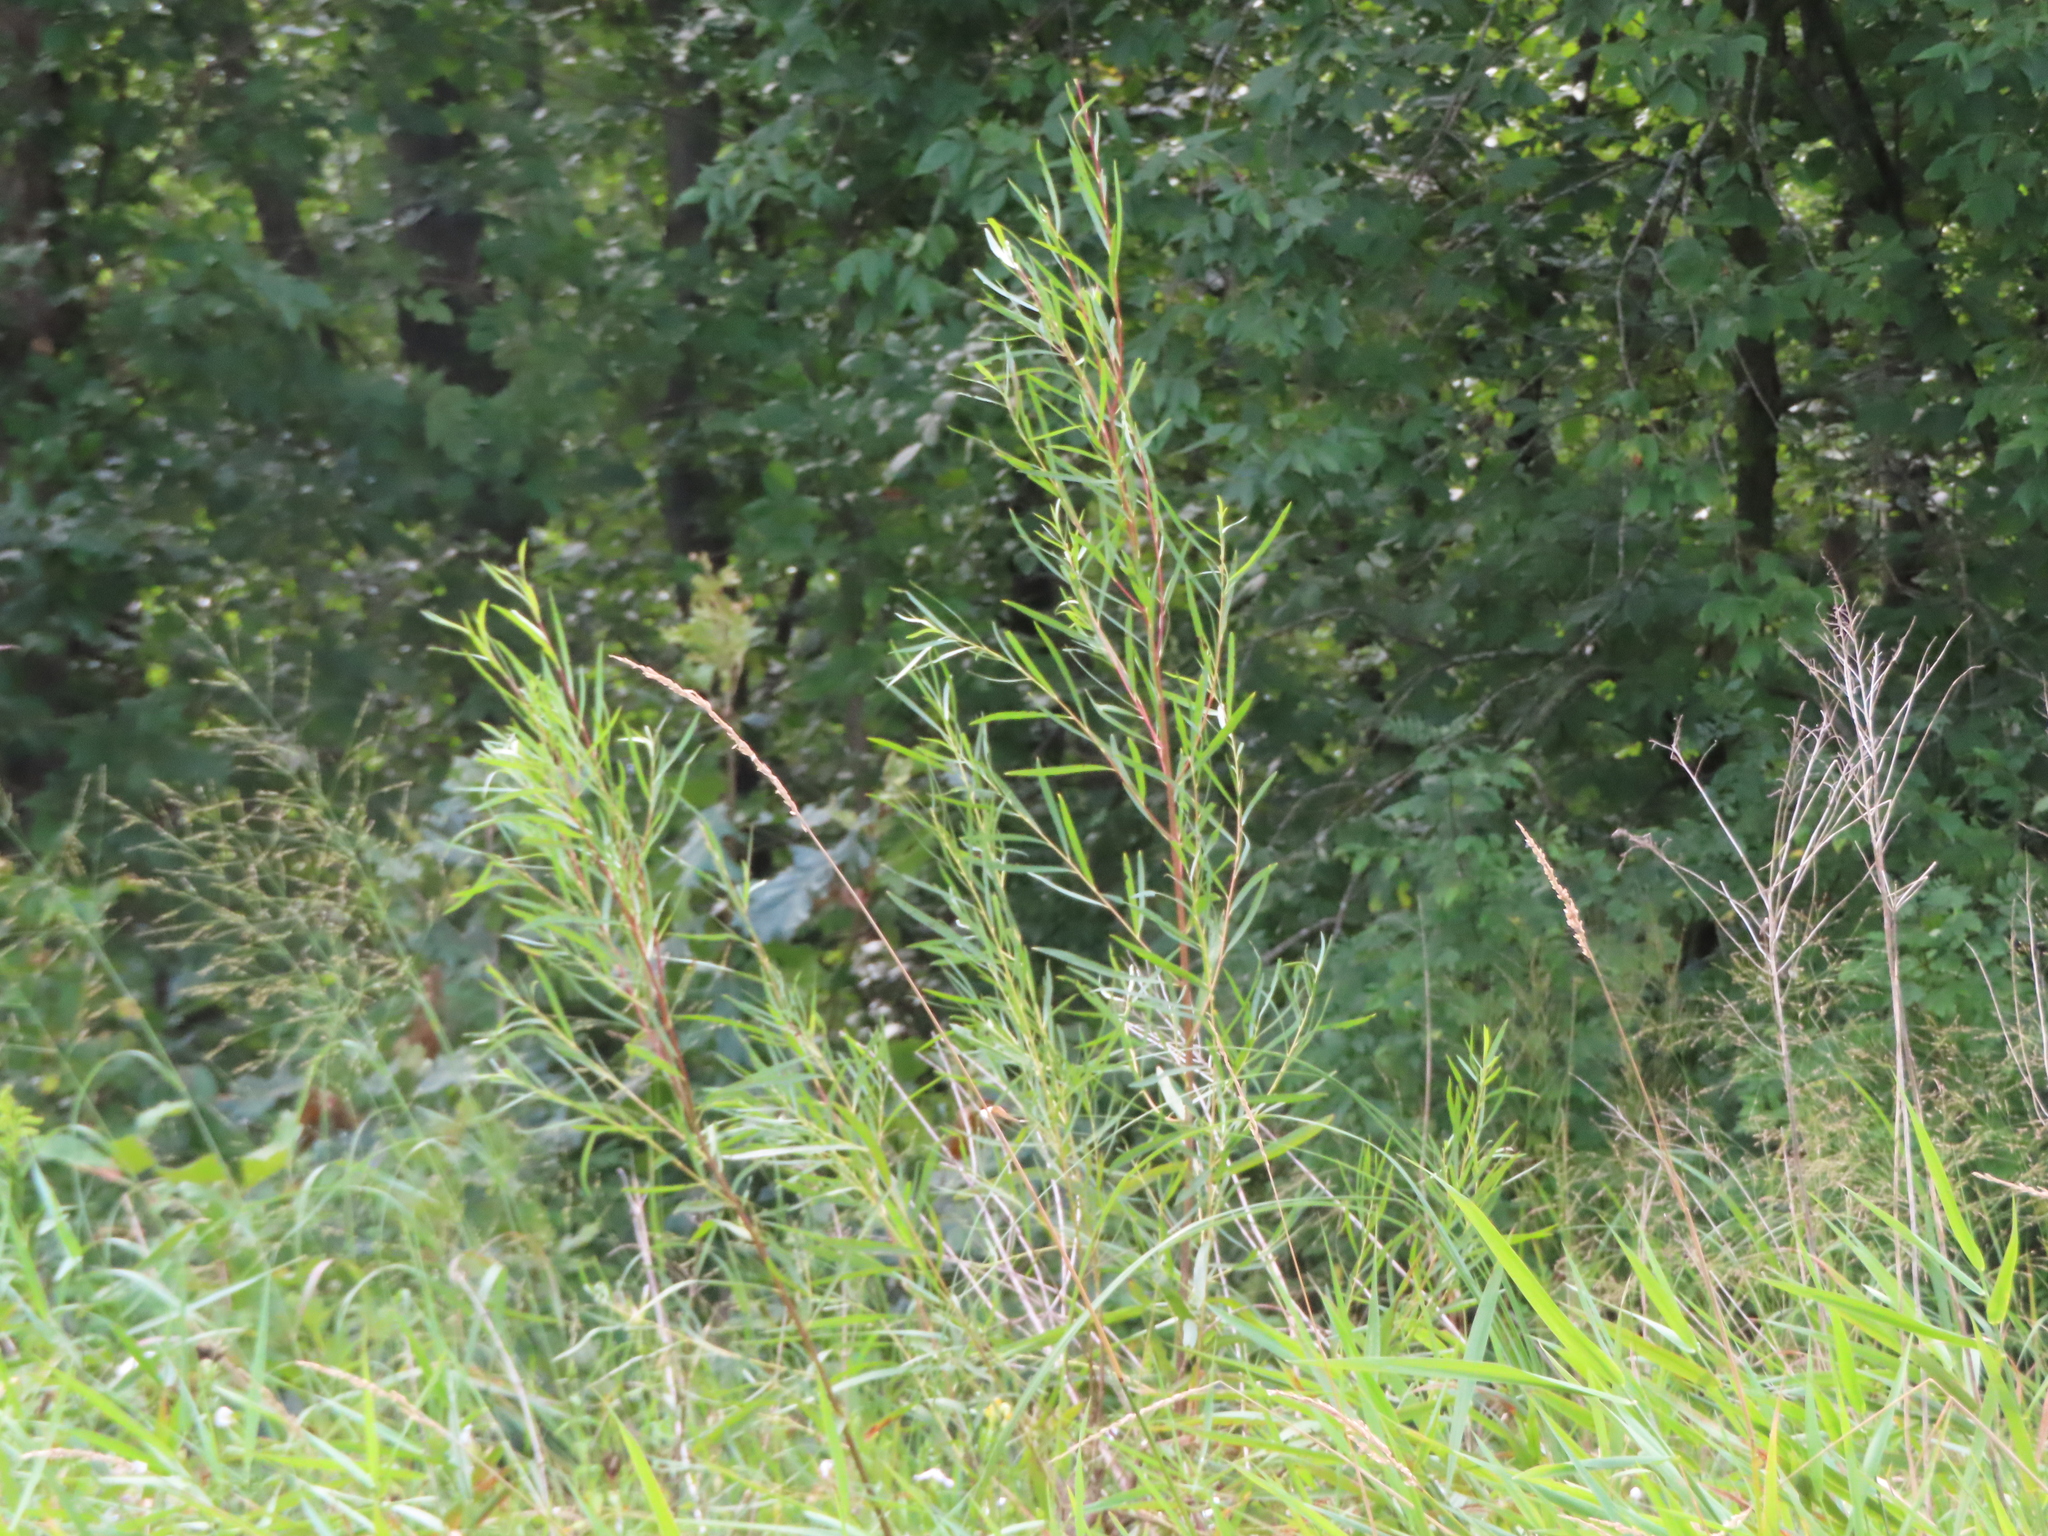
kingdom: Plantae
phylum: Tracheophyta
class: Magnoliopsida
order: Malpighiales
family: Salicaceae
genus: Salix
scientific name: Salix interior
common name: Sandbar willow
